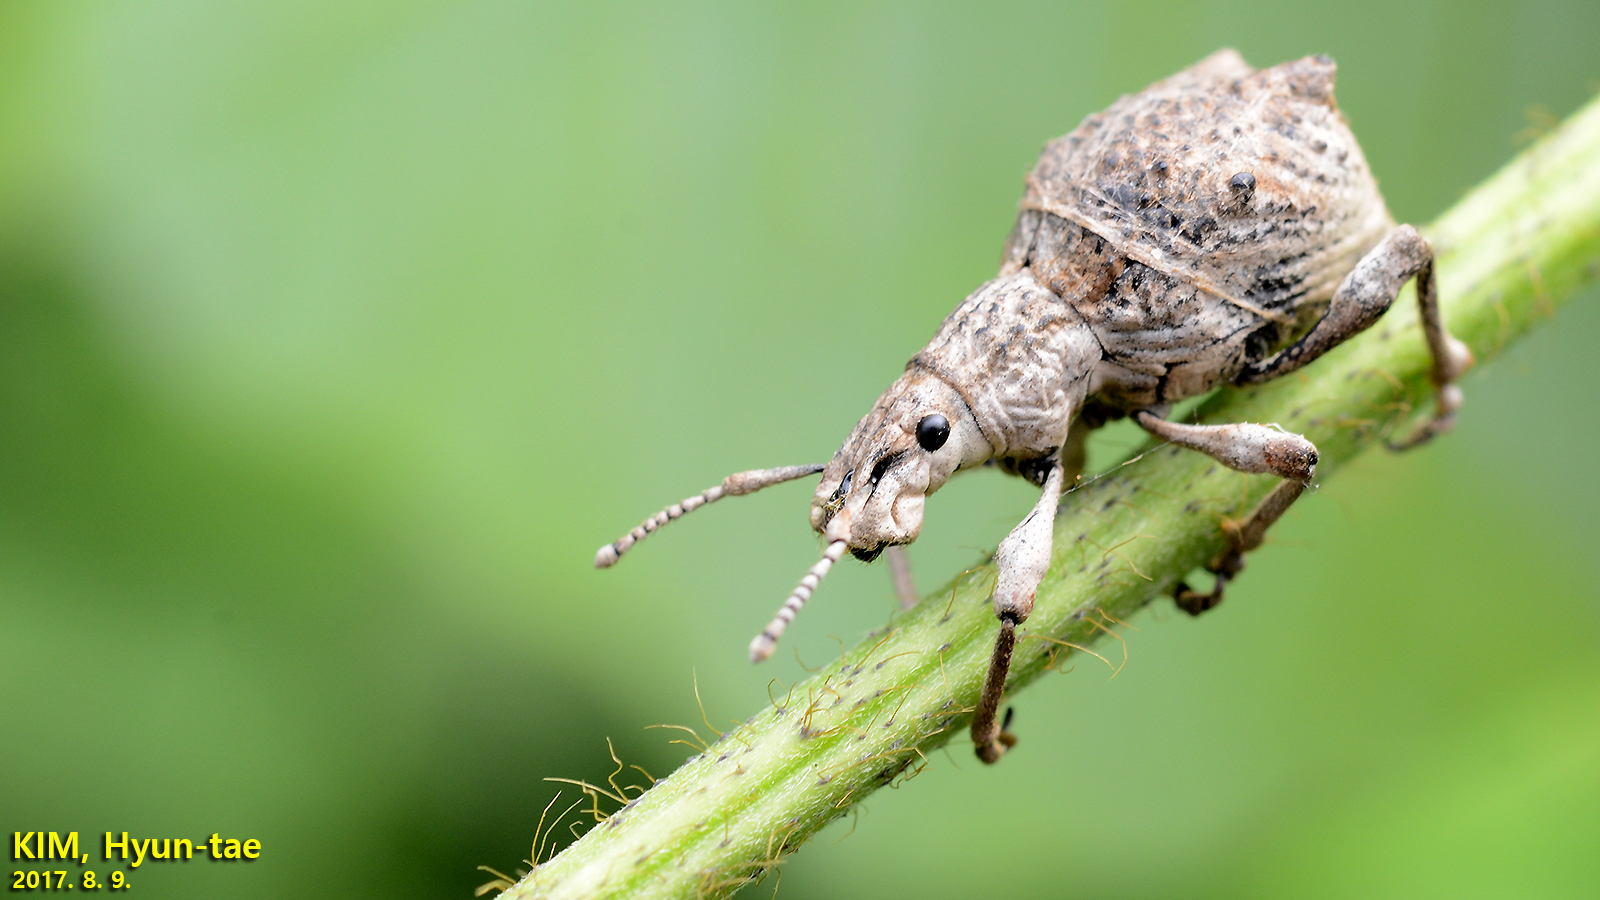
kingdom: Animalia
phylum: Arthropoda
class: Insecta
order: Coleoptera
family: Curculionidae
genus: Episomus
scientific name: Episomus turritus
